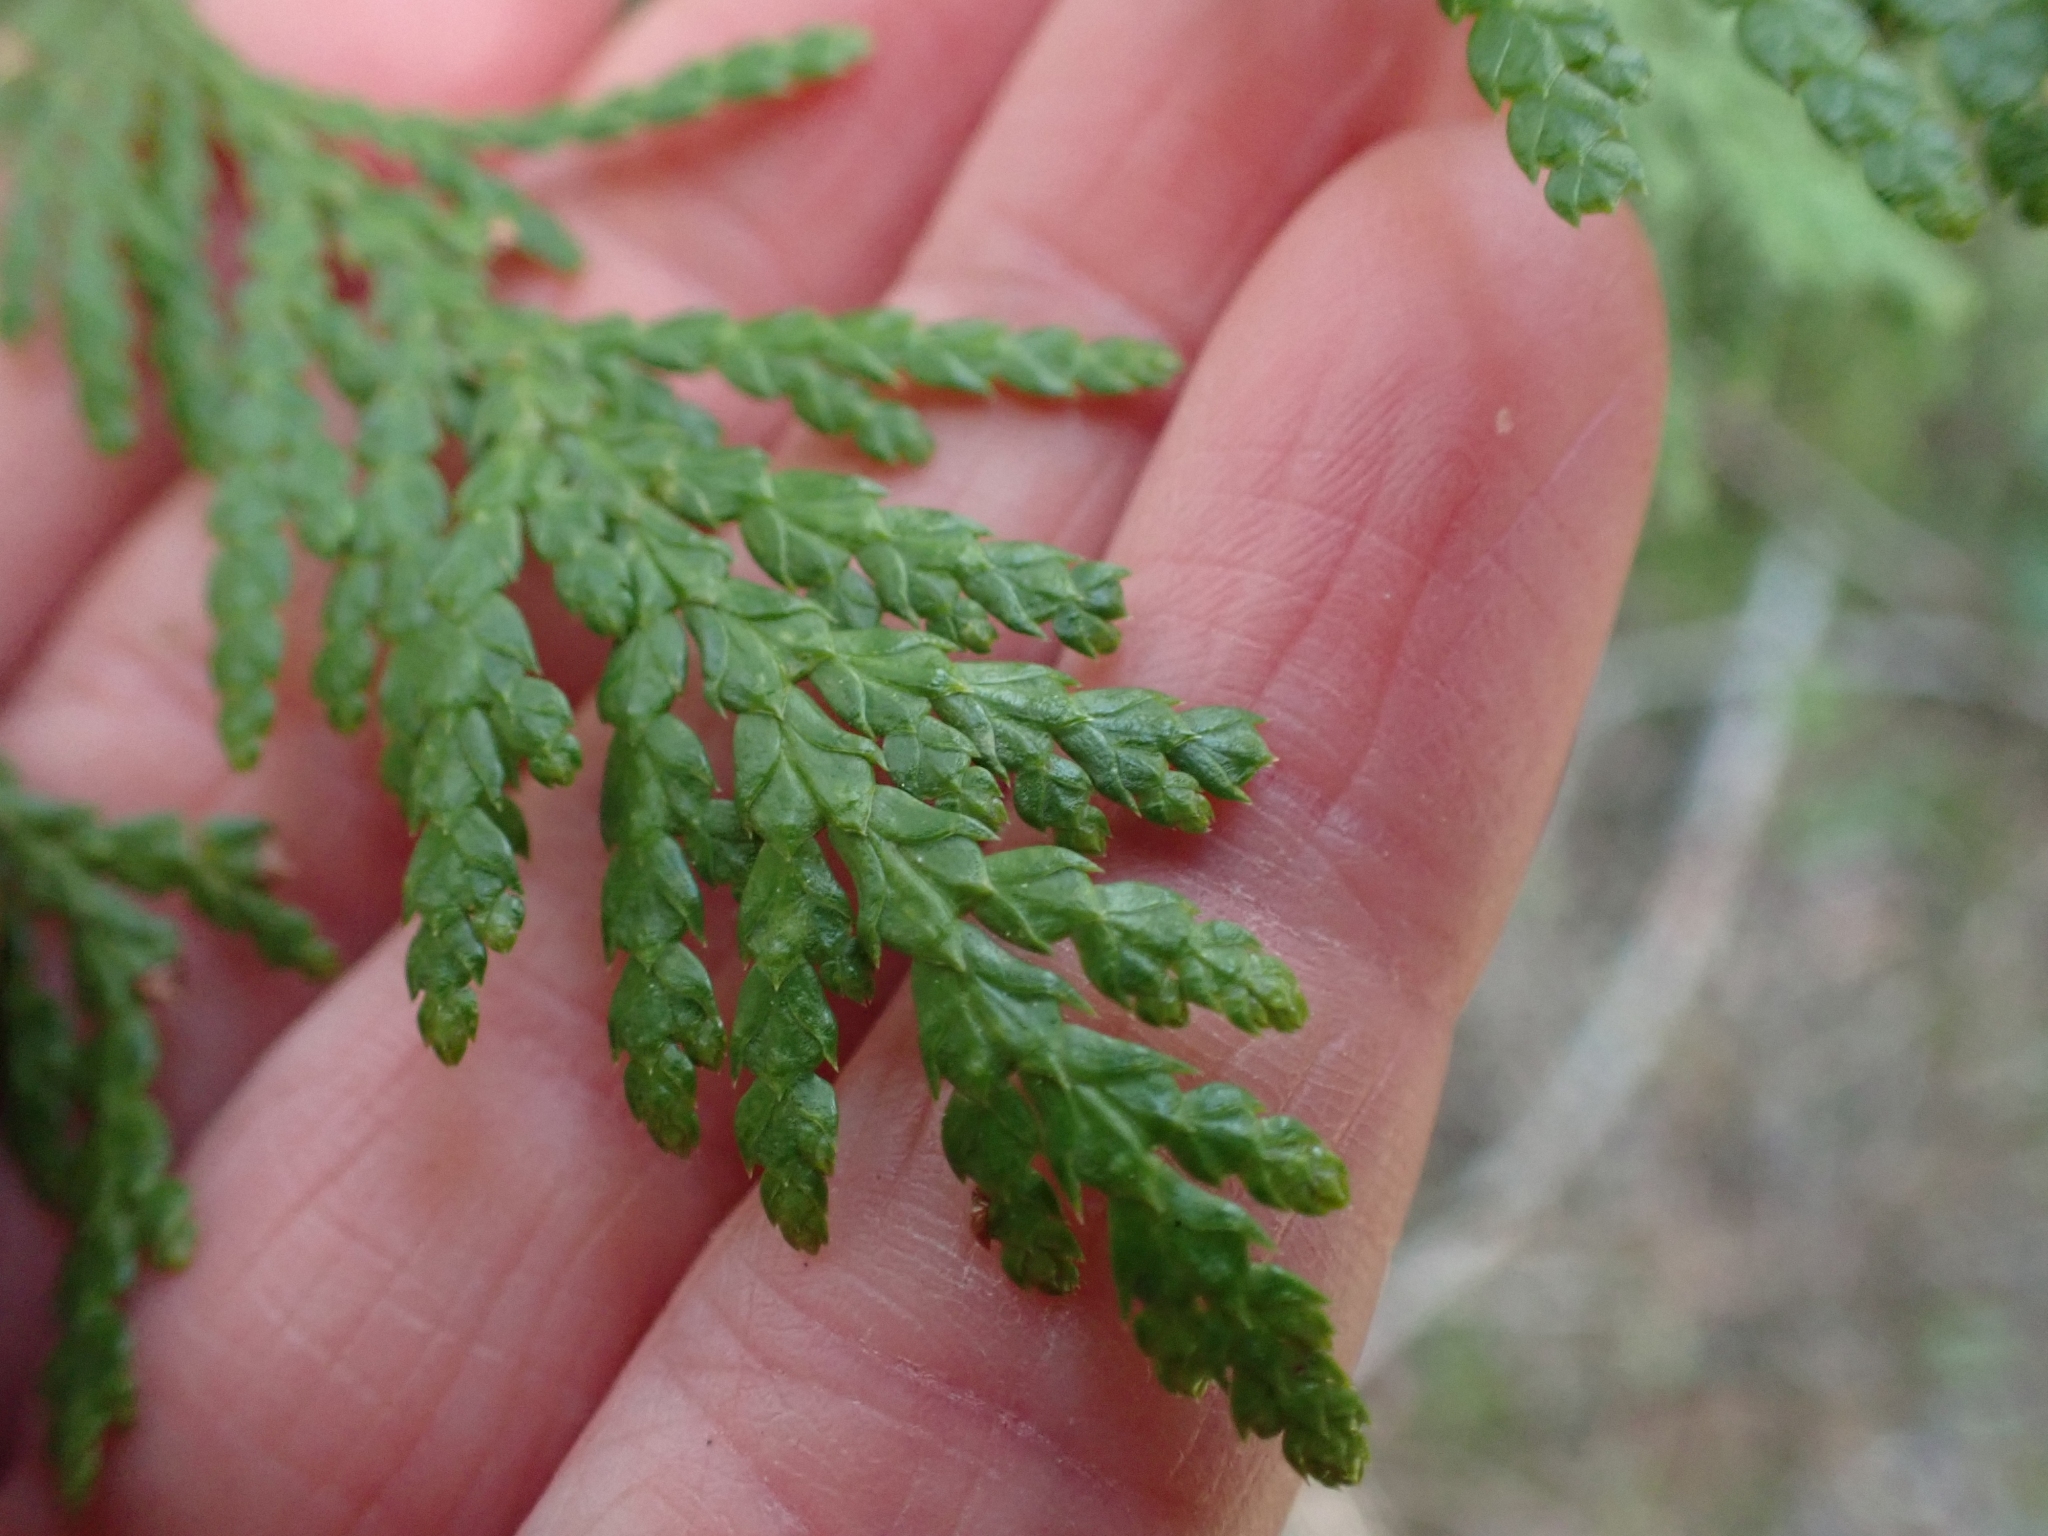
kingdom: Plantae
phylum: Tracheophyta
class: Pinopsida
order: Pinales
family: Cupressaceae
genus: Thuja
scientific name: Thuja plicata
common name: Western red-cedar
